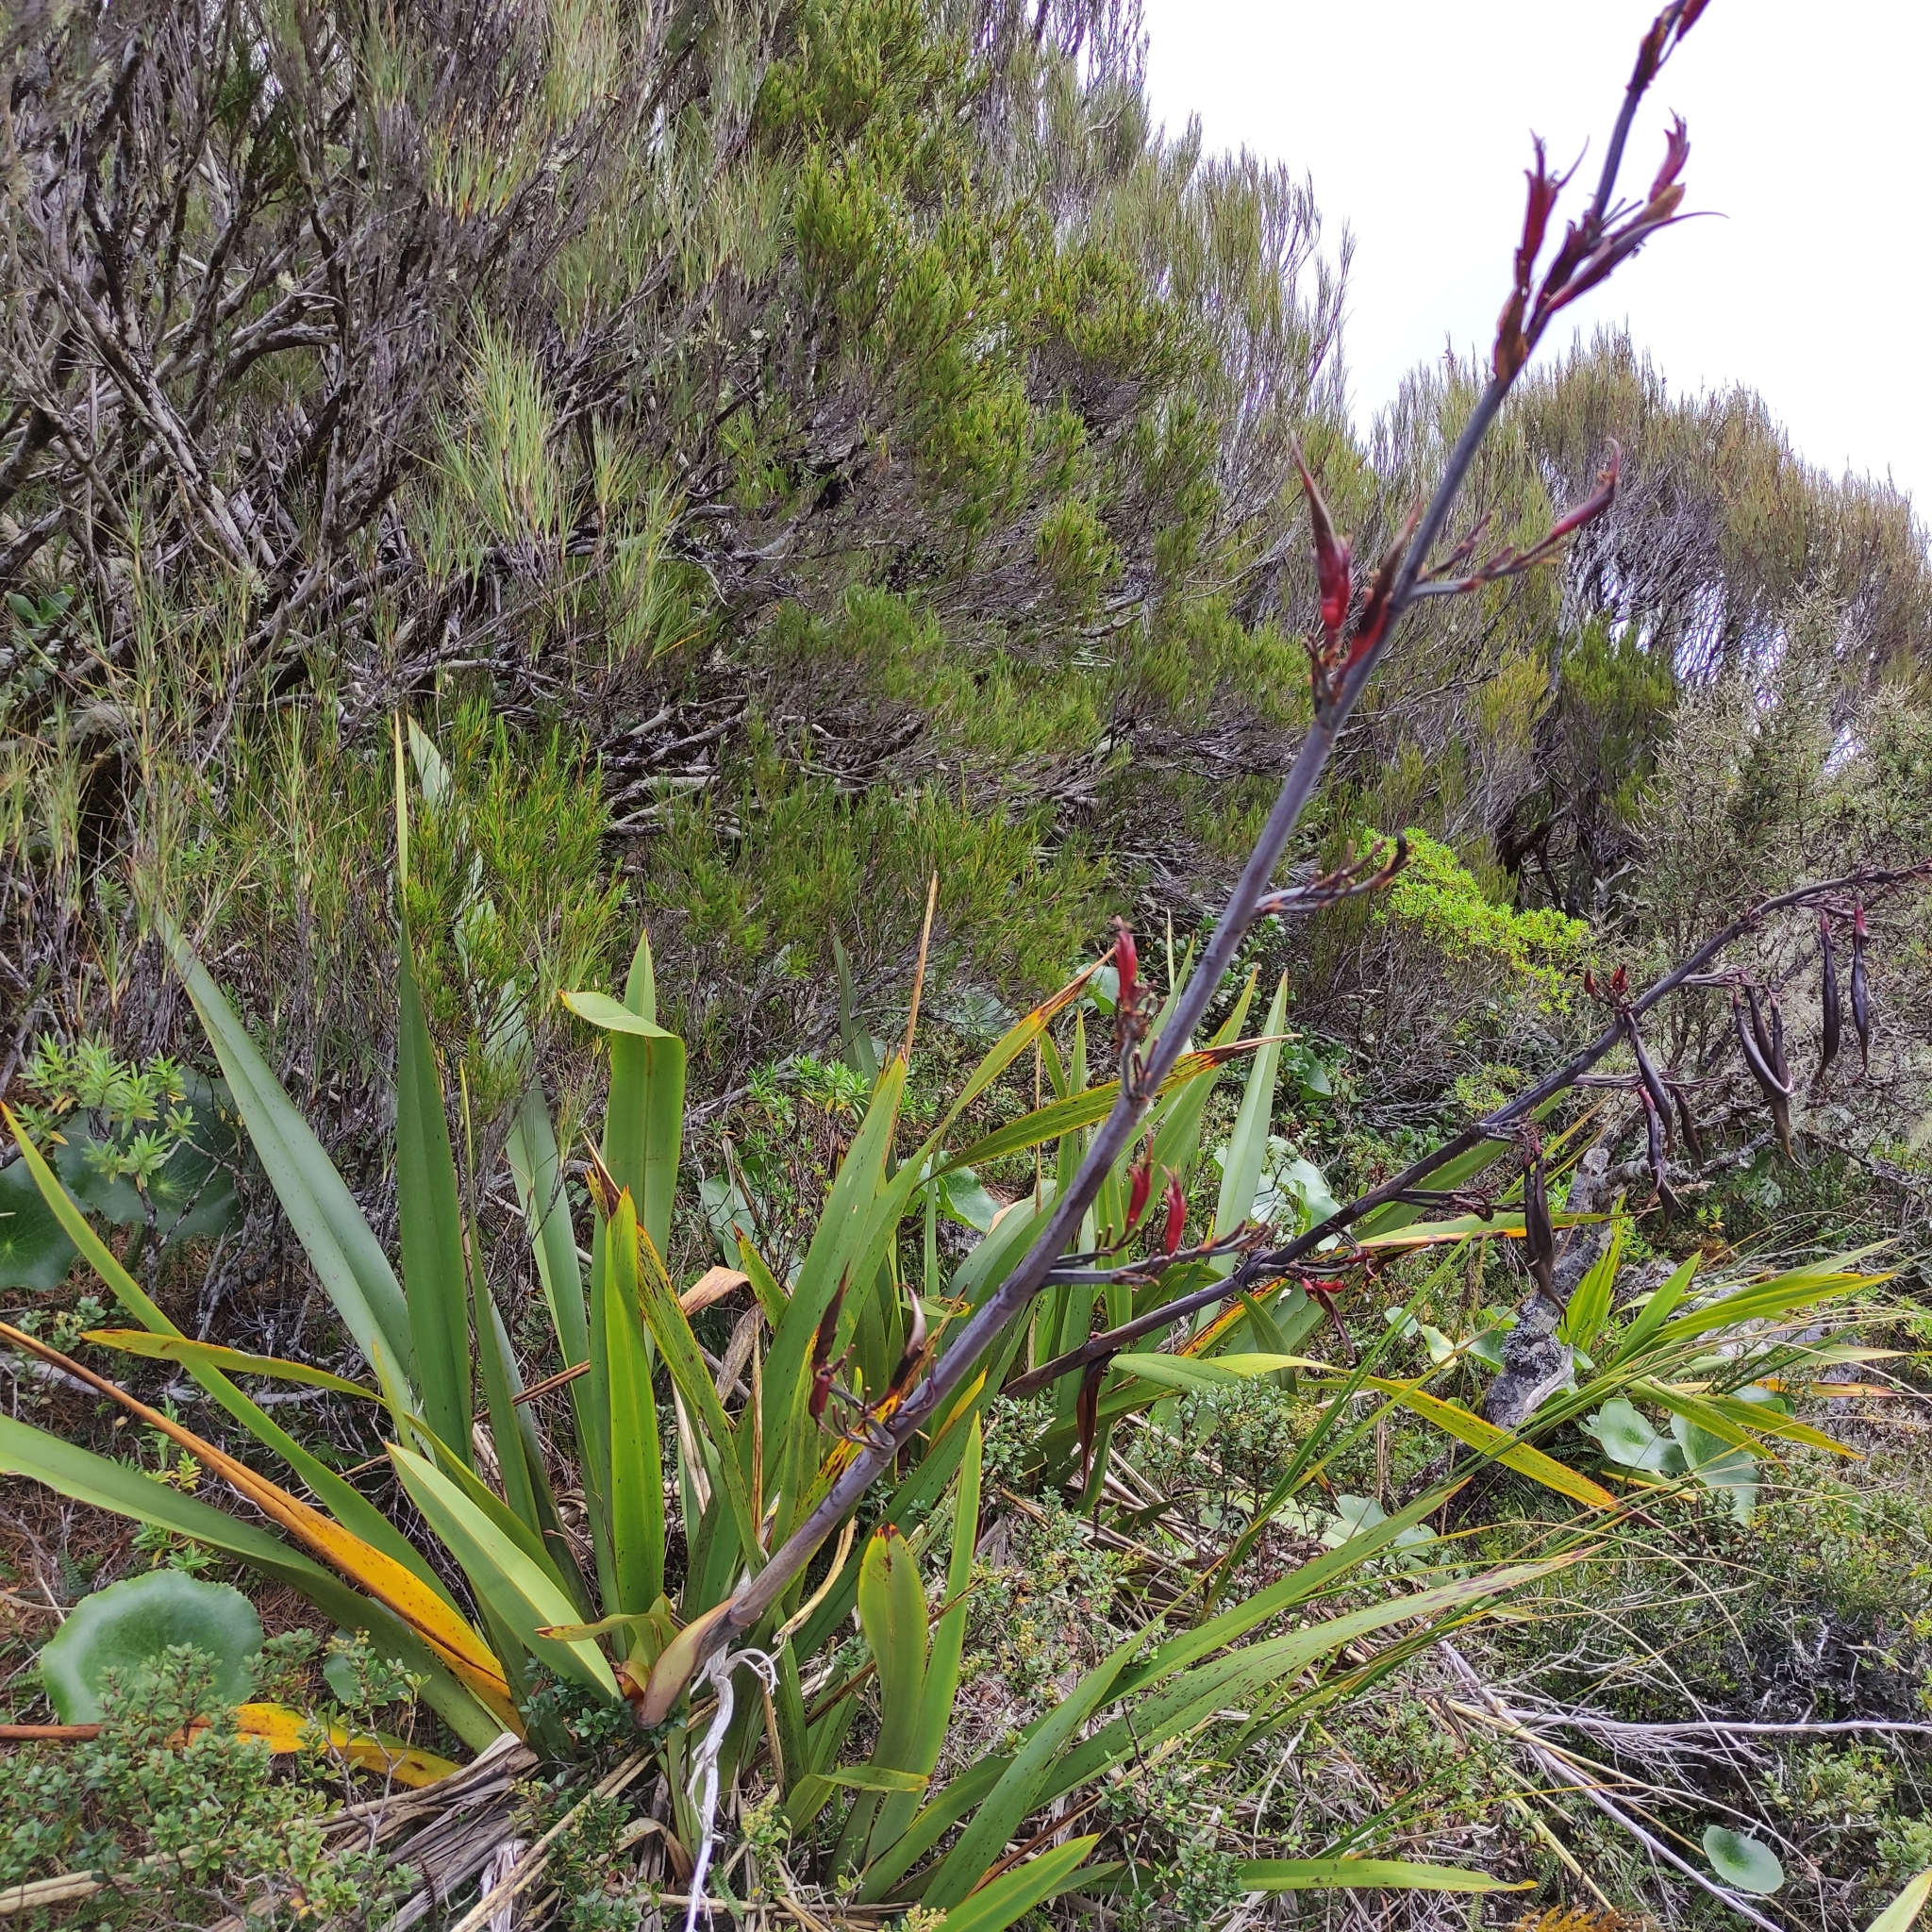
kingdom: Plantae
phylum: Tracheophyta
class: Liliopsida
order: Asparagales
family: Asphodelaceae
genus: Phormium
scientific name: Phormium tenax
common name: New zealand flax
